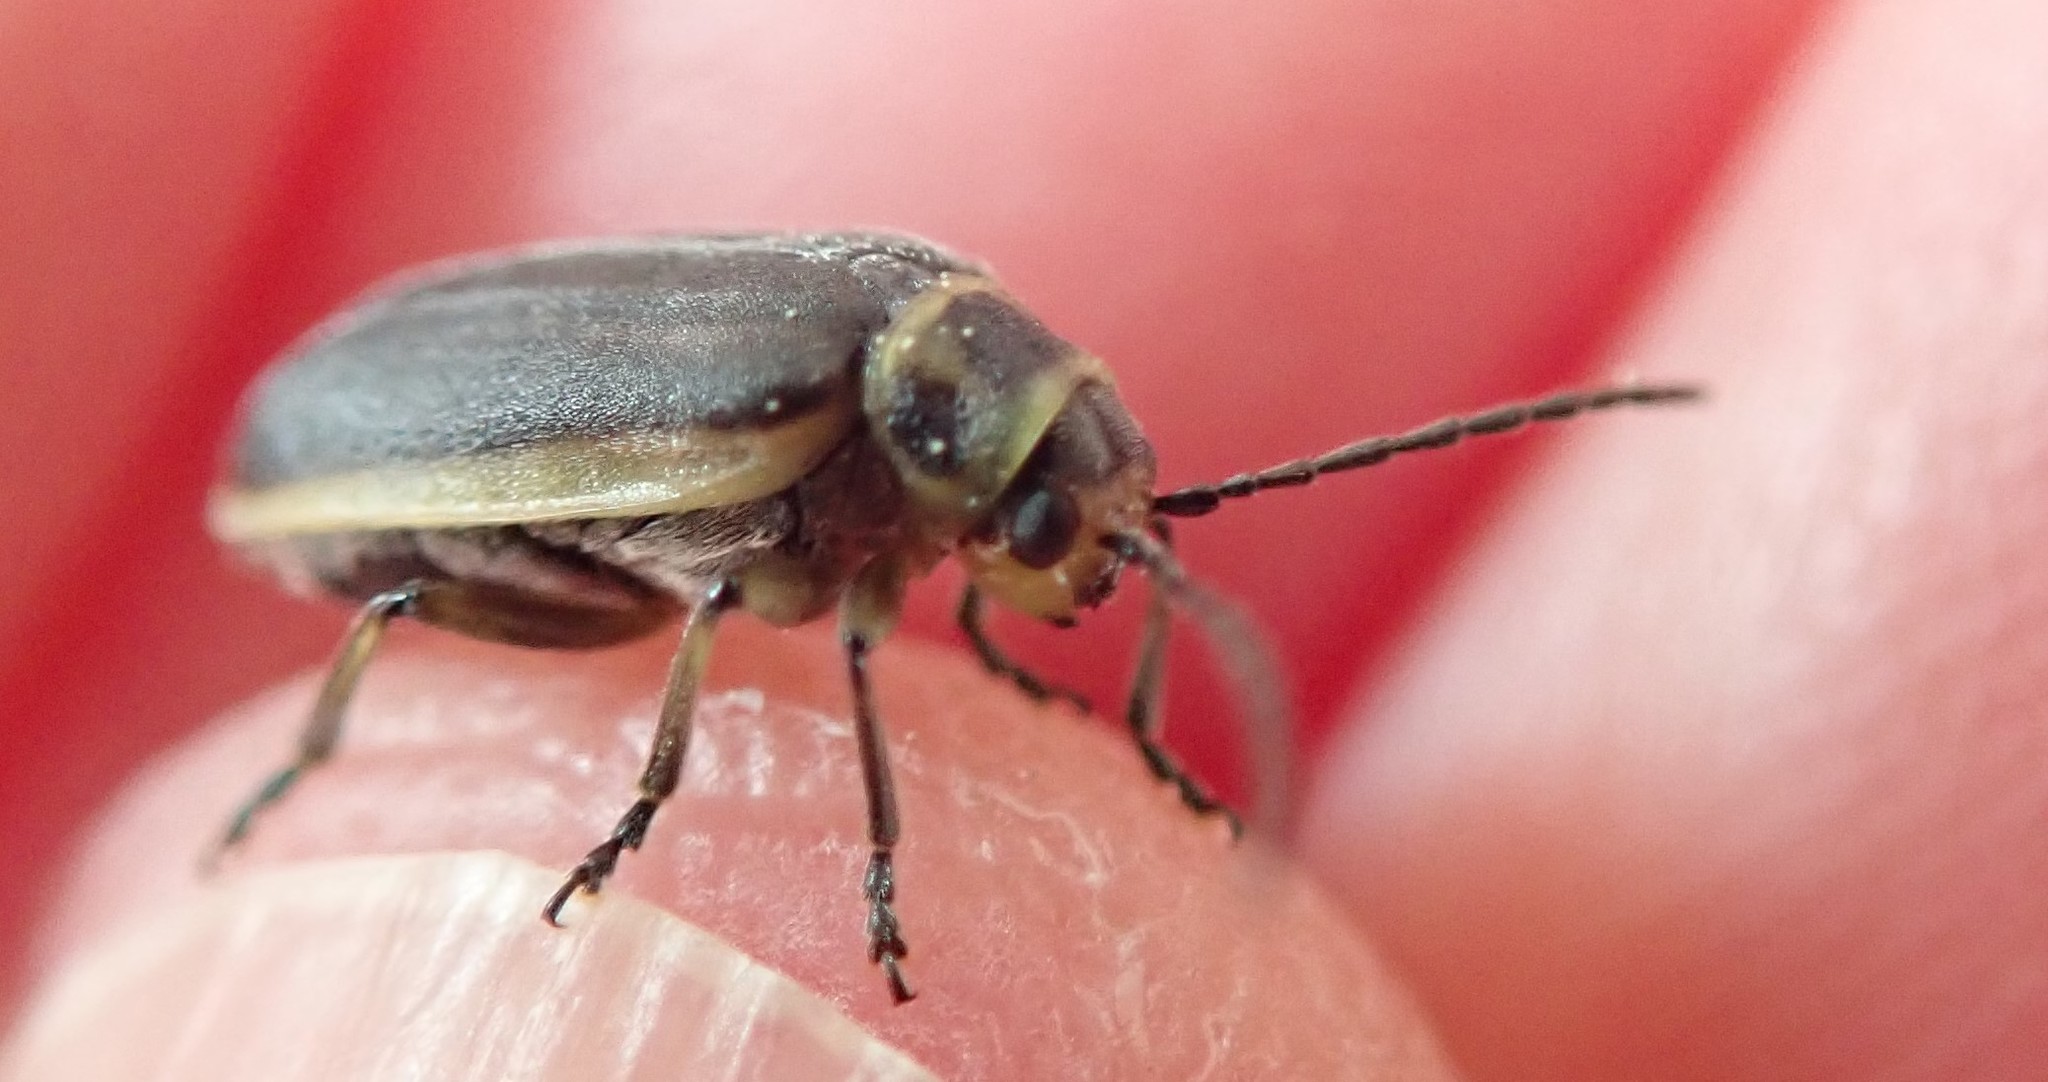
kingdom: Animalia
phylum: Arthropoda
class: Insecta
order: Coleoptera
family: Chrysomelidae
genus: Trirhabda
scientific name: Trirhabda geminata
